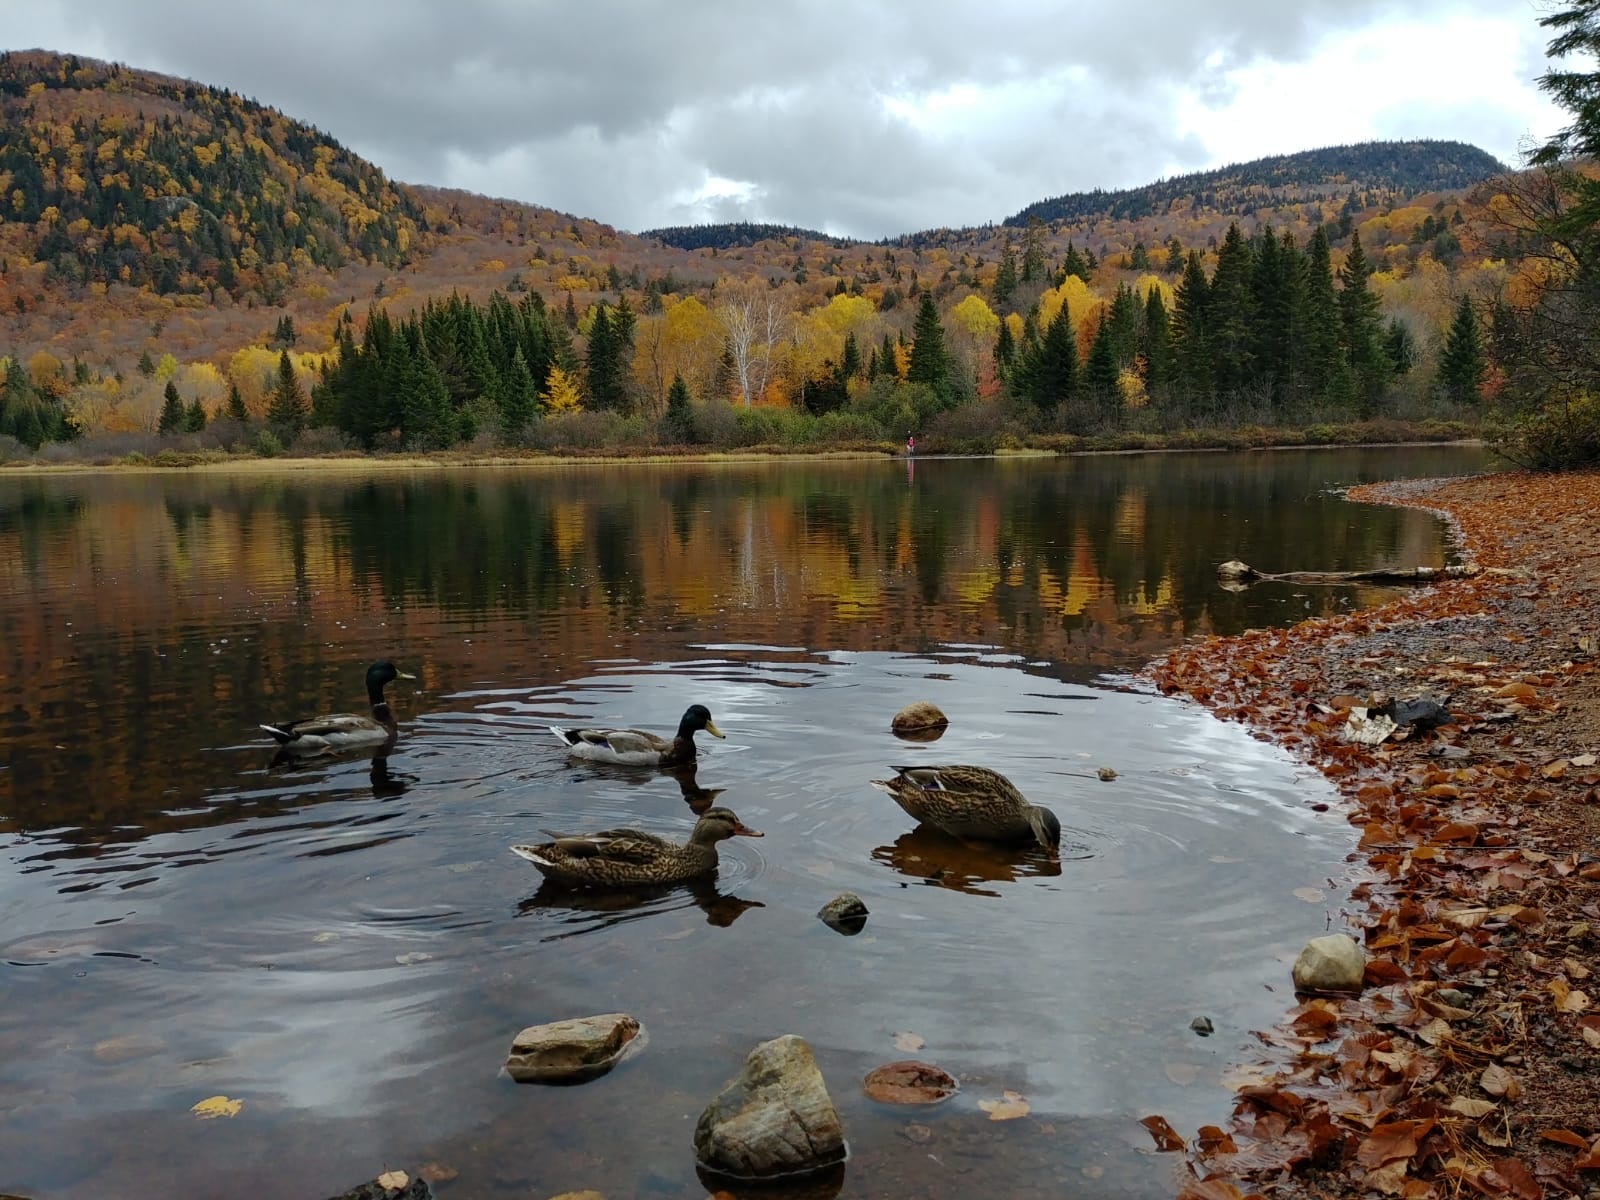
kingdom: Animalia
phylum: Chordata
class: Aves
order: Anseriformes
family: Anatidae
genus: Anas
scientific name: Anas platyrhynchos
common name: Mallard
